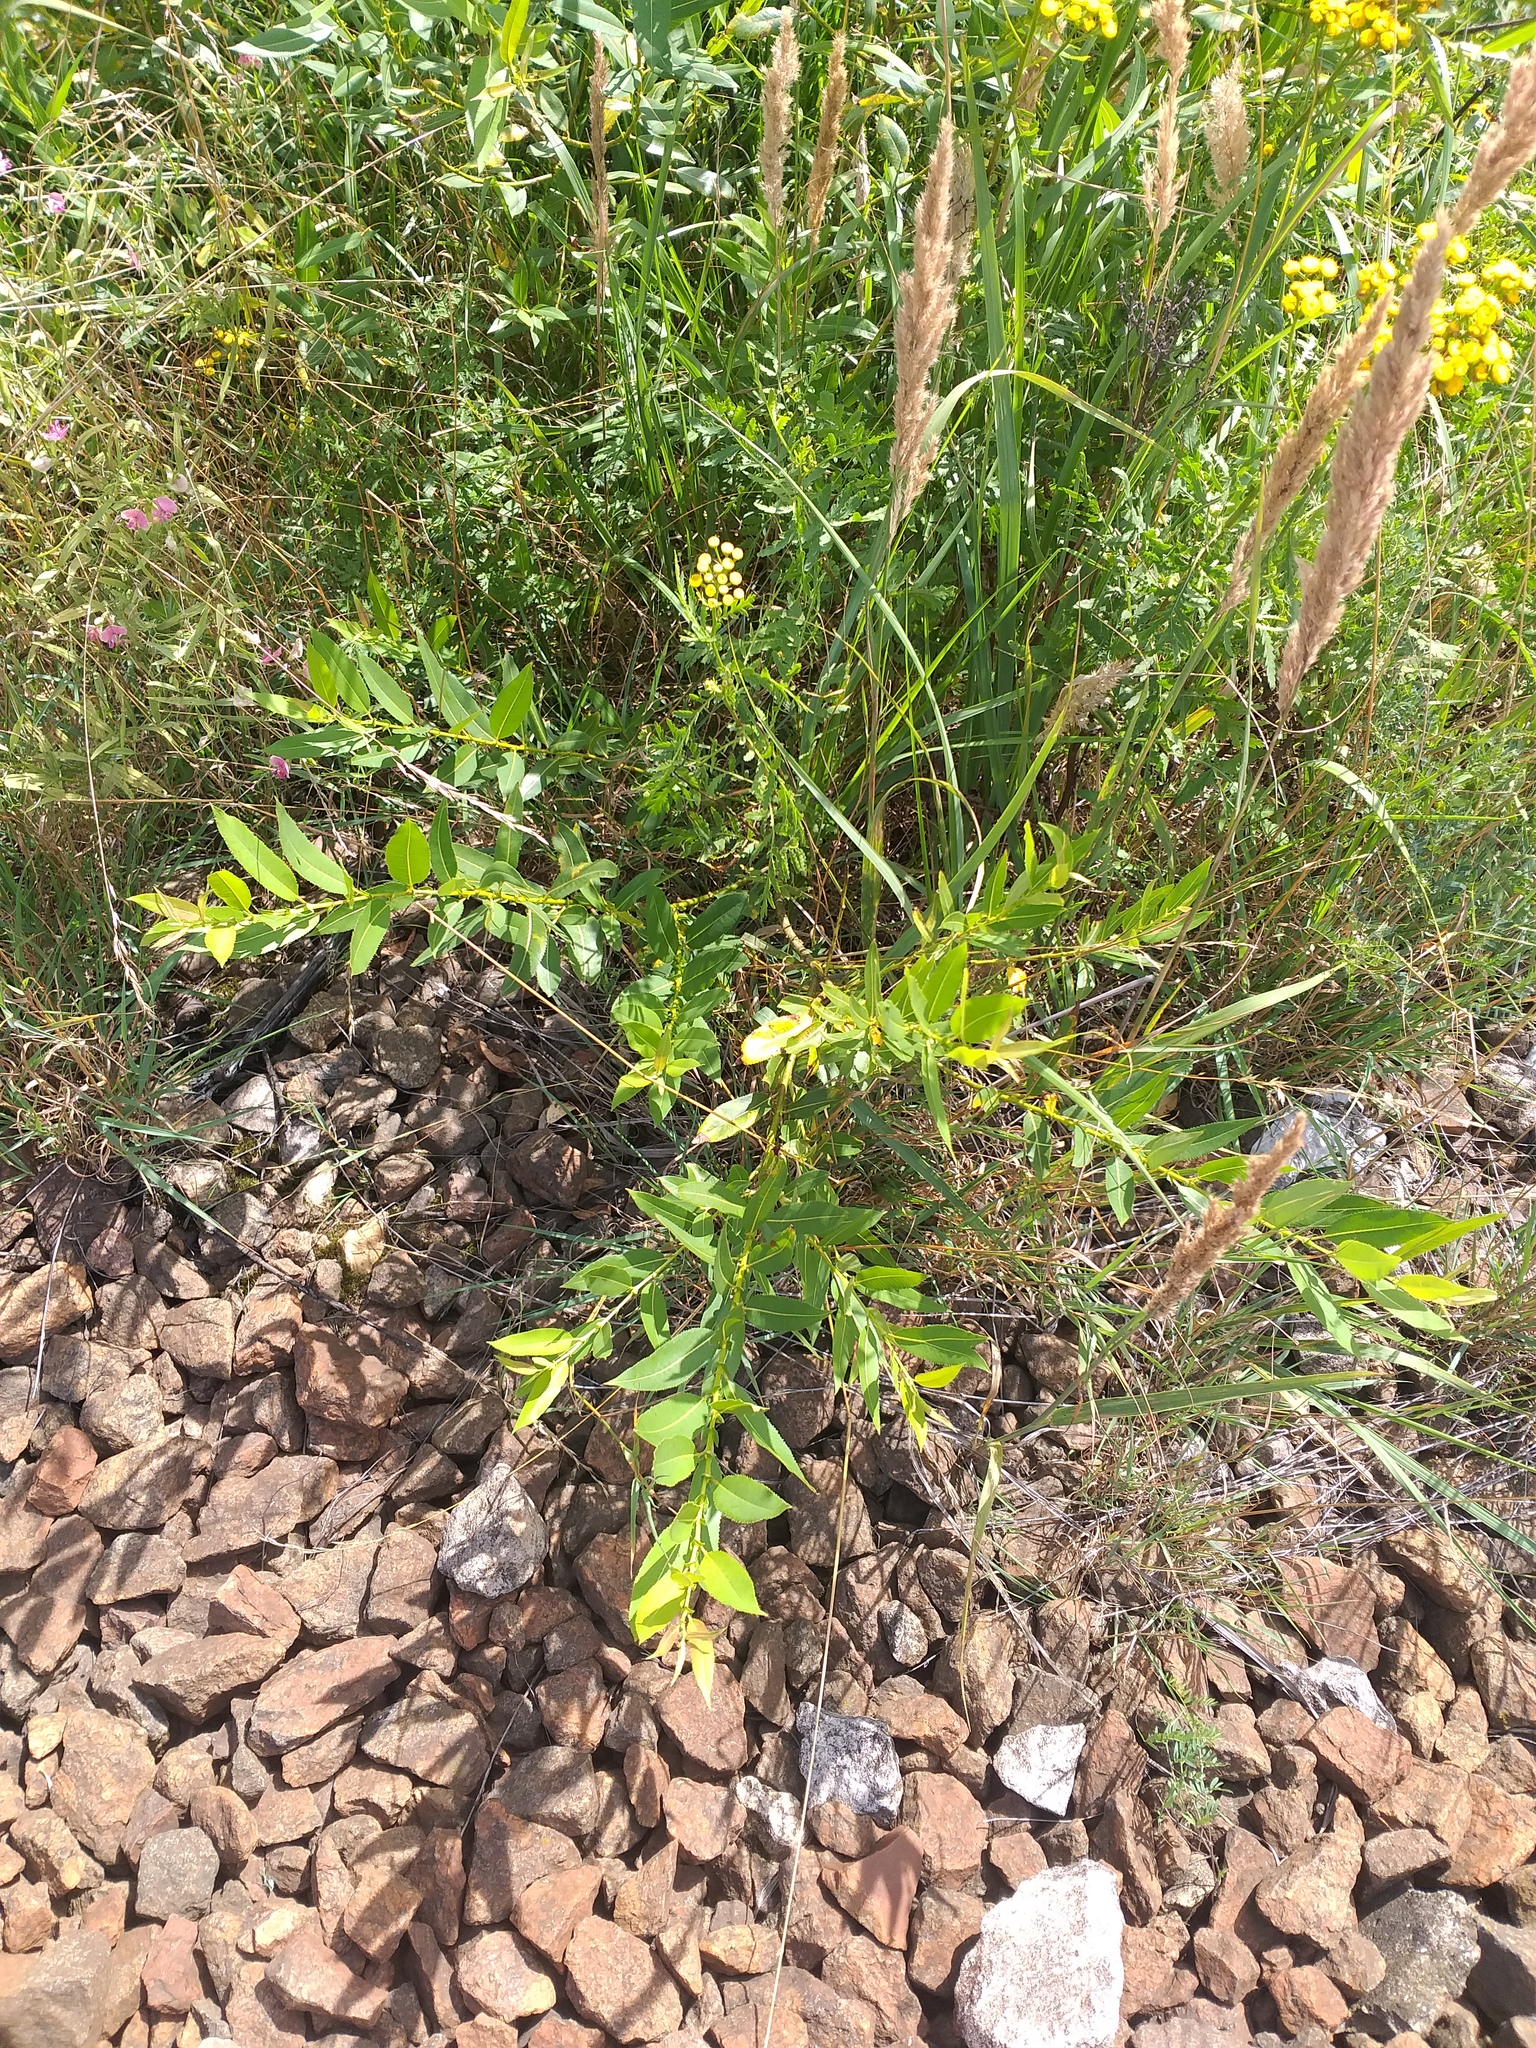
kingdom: Plantae
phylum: Tracheophyta
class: Magnoliopsida
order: Malpighiales
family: Salicaceae
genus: Salix
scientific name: Salix triandra
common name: Almond willow
